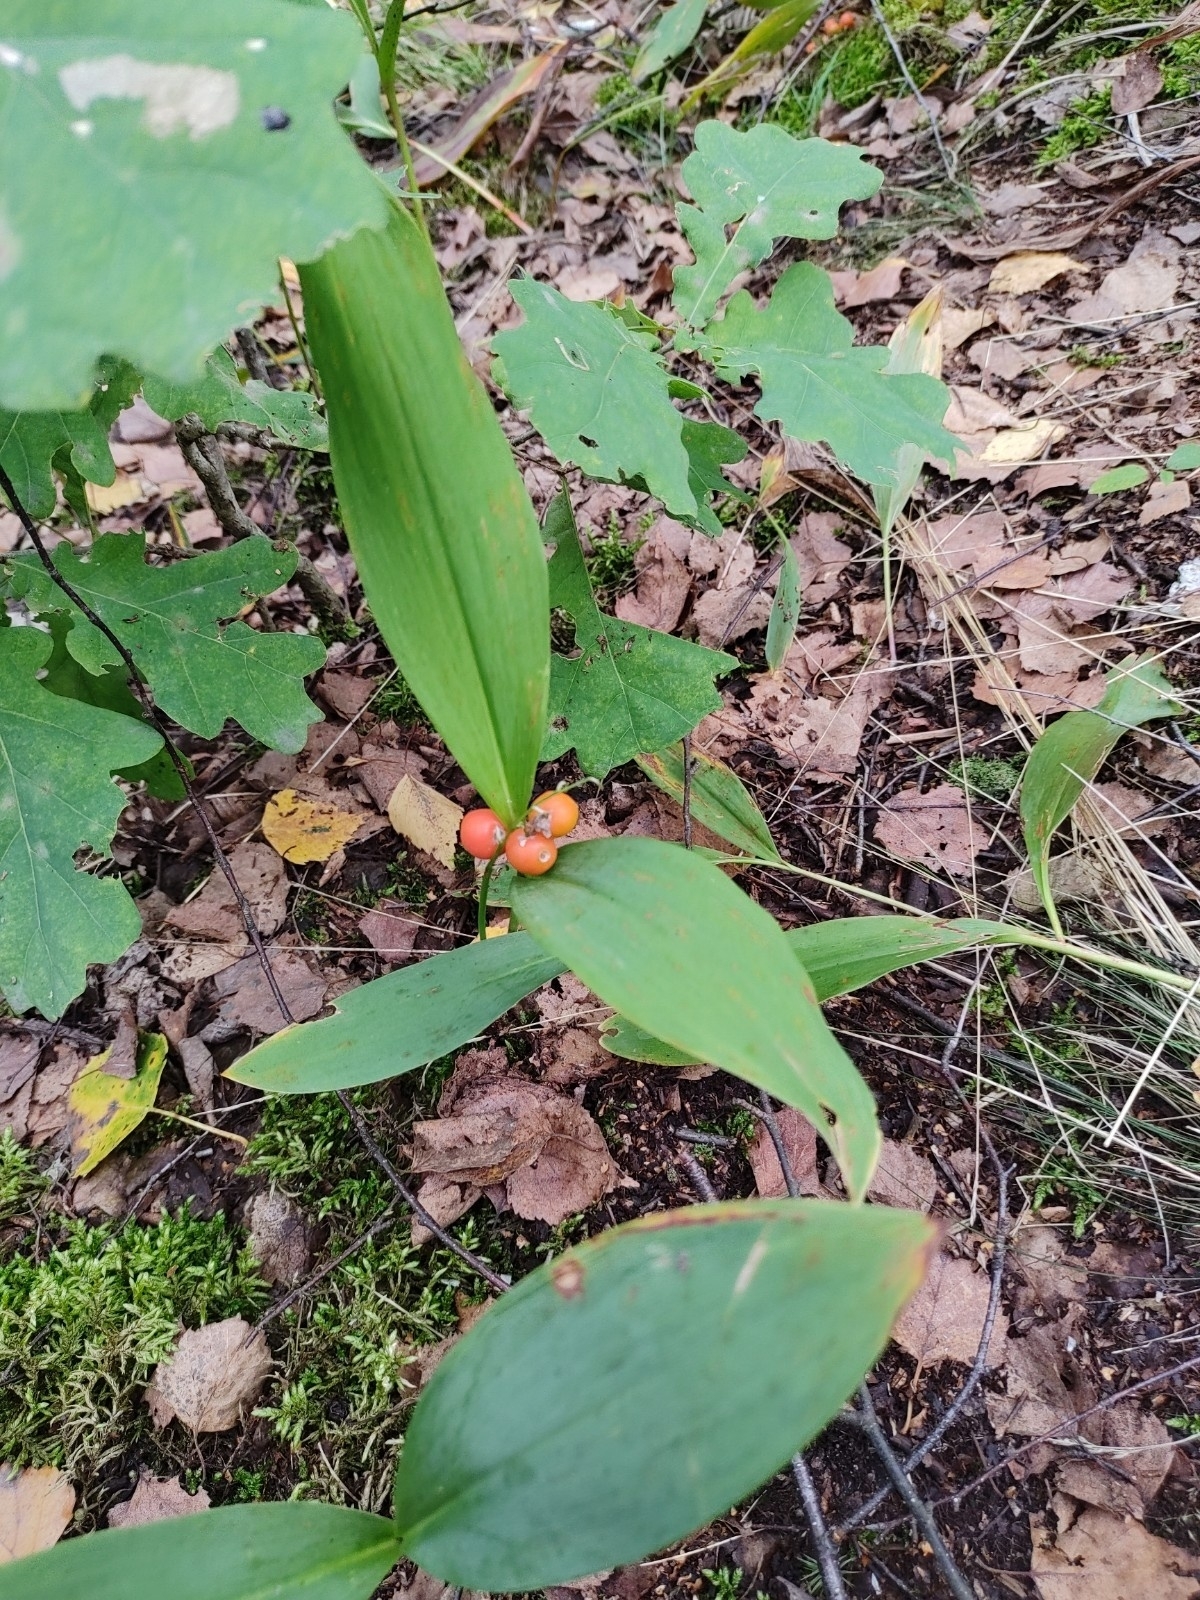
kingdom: Plantae
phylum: Tracheophyta
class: Liliopsida
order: Asparagales
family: Asparagaceae
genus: Convallaria
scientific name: Convallaria majalis
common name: Lily-of-the-valley
